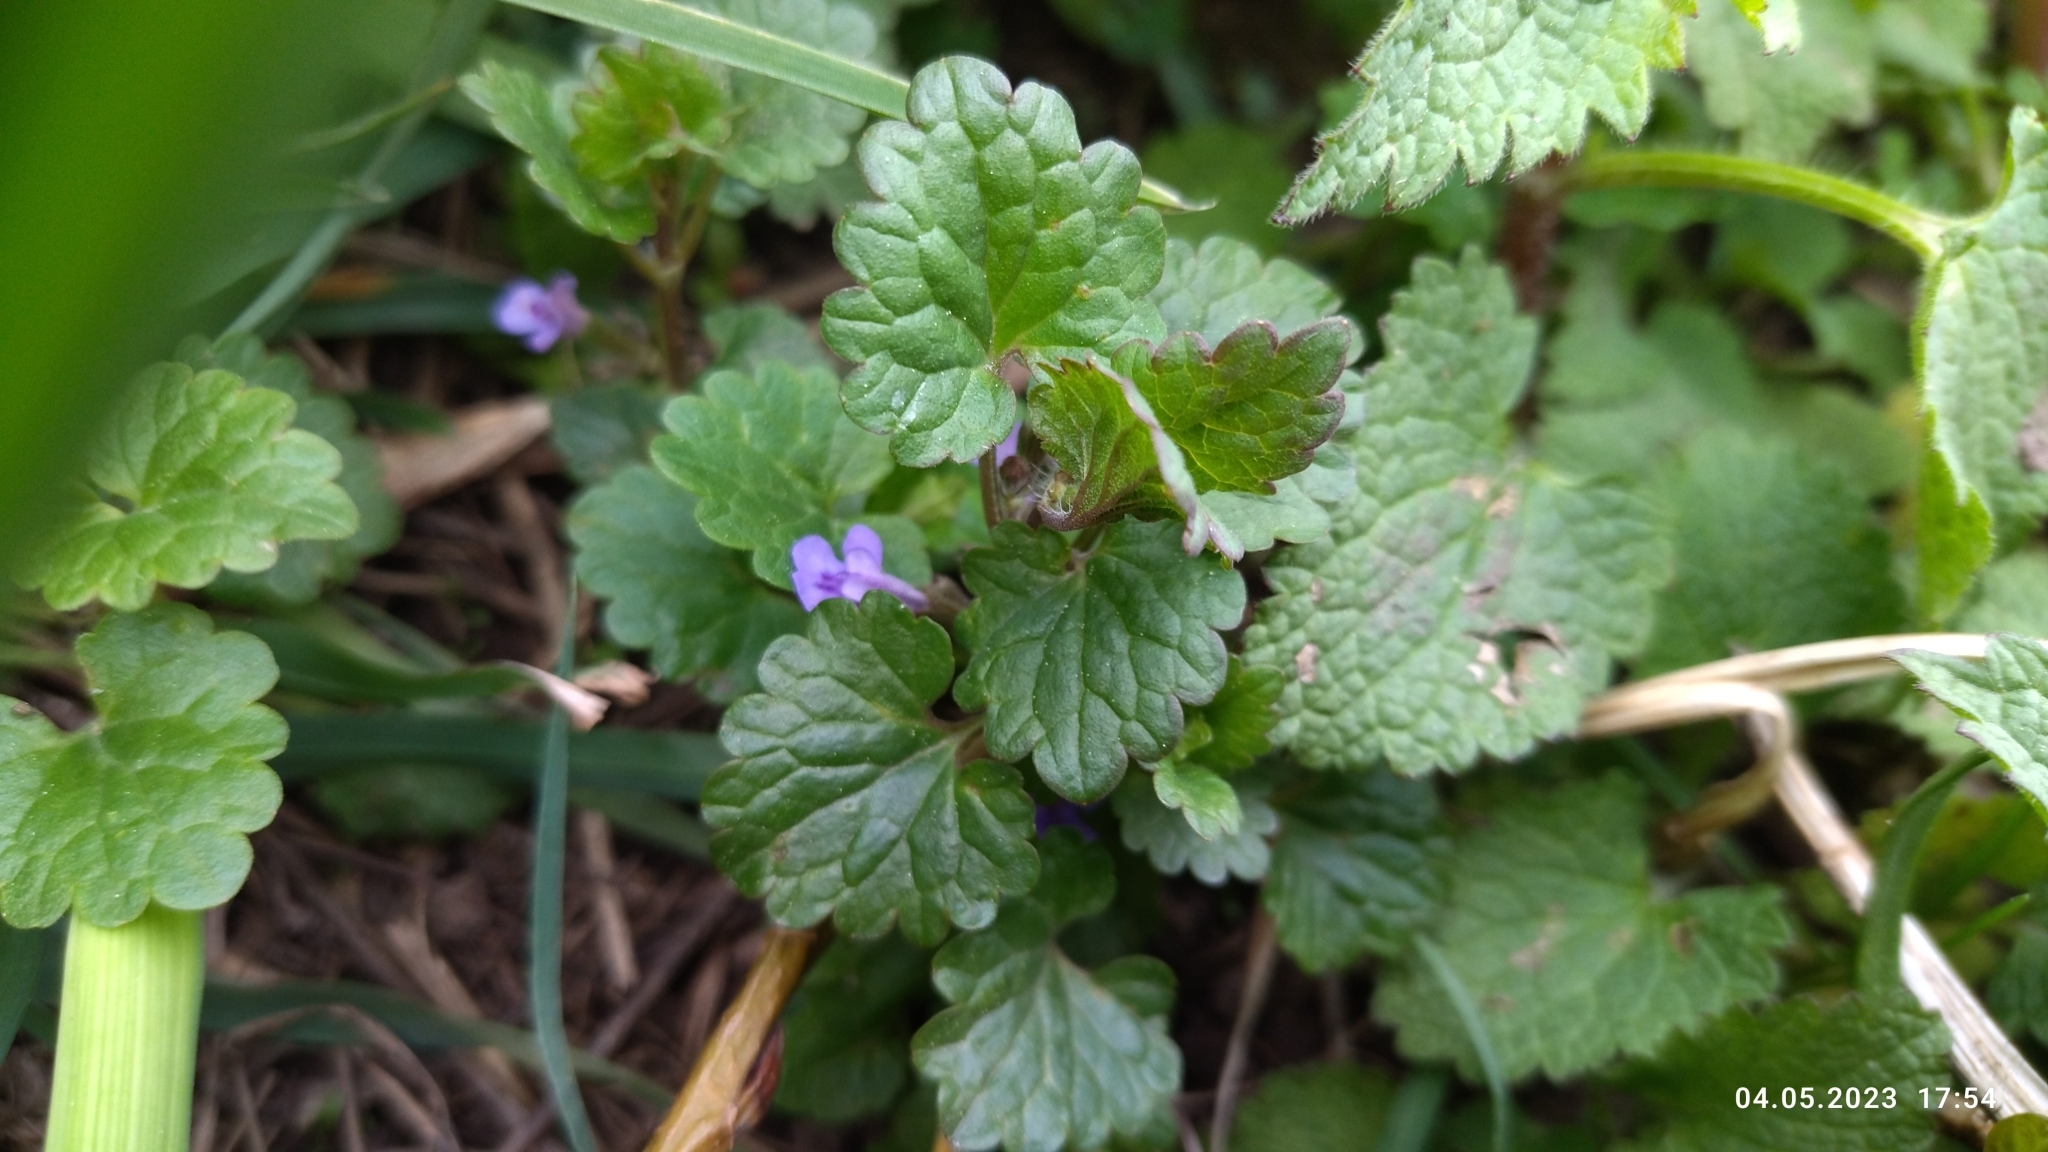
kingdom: Plantae
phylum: Tracheophyta
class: Magnoliopsida
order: Lamiales
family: Lamiaceae
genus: Glechoma
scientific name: Glechoma hederacea
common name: Ground ivy
